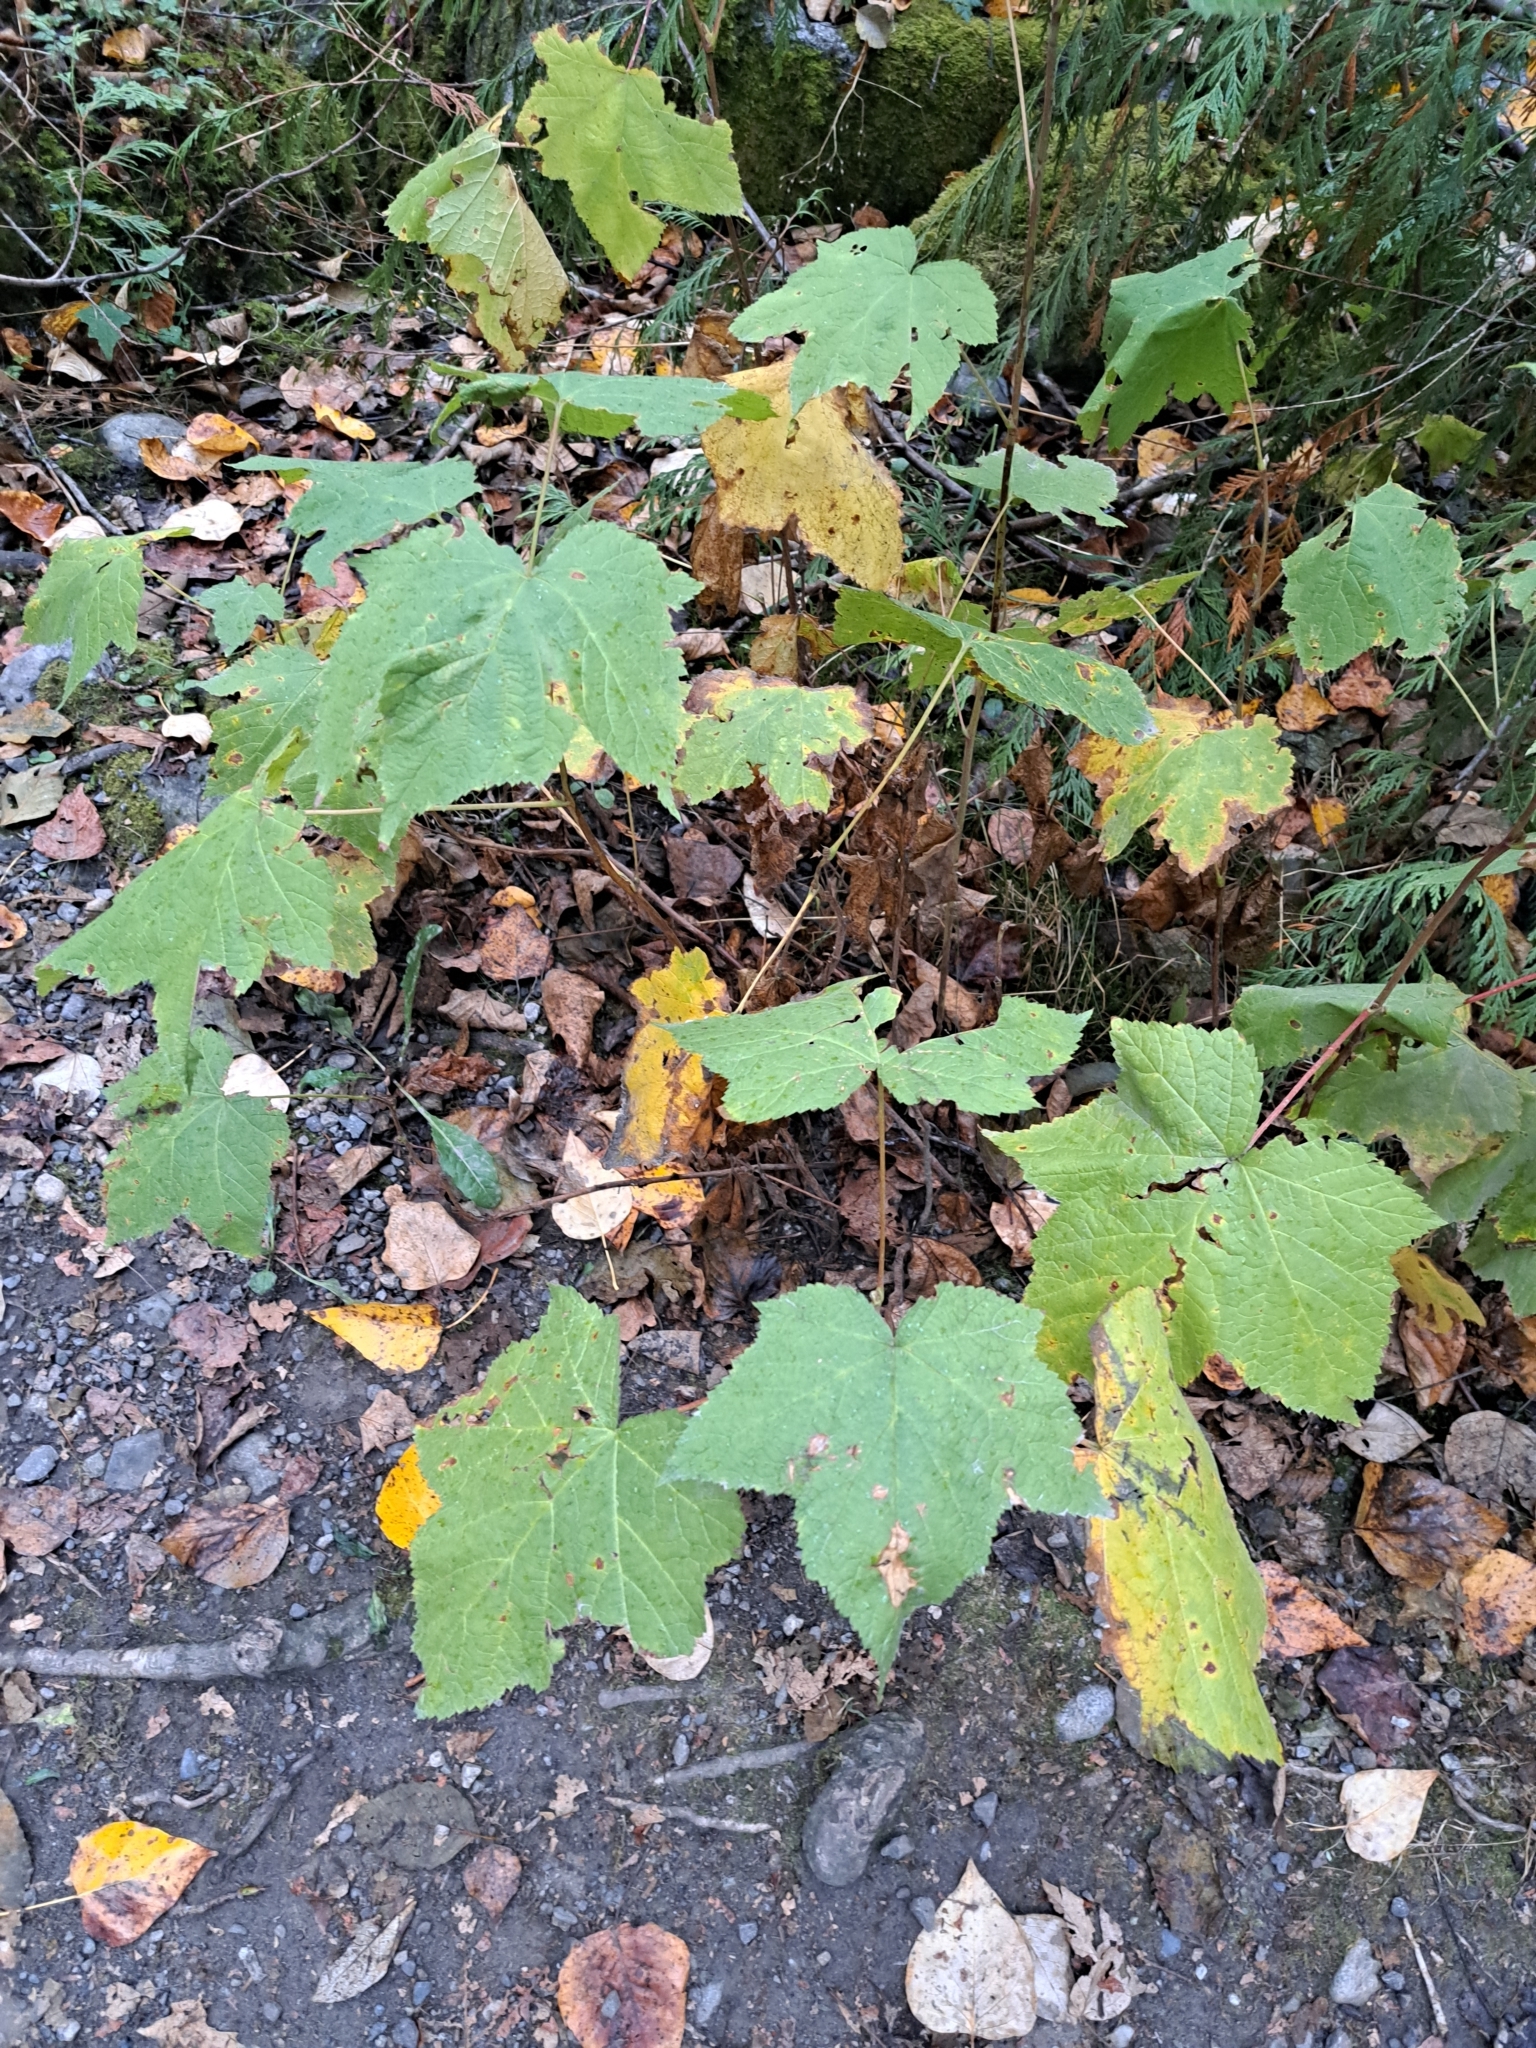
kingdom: Plantae
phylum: Tracheophyta
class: Magnoliopsida
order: Rosales
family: Rosaceae
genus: Rubus
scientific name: Rubus parviflorus
